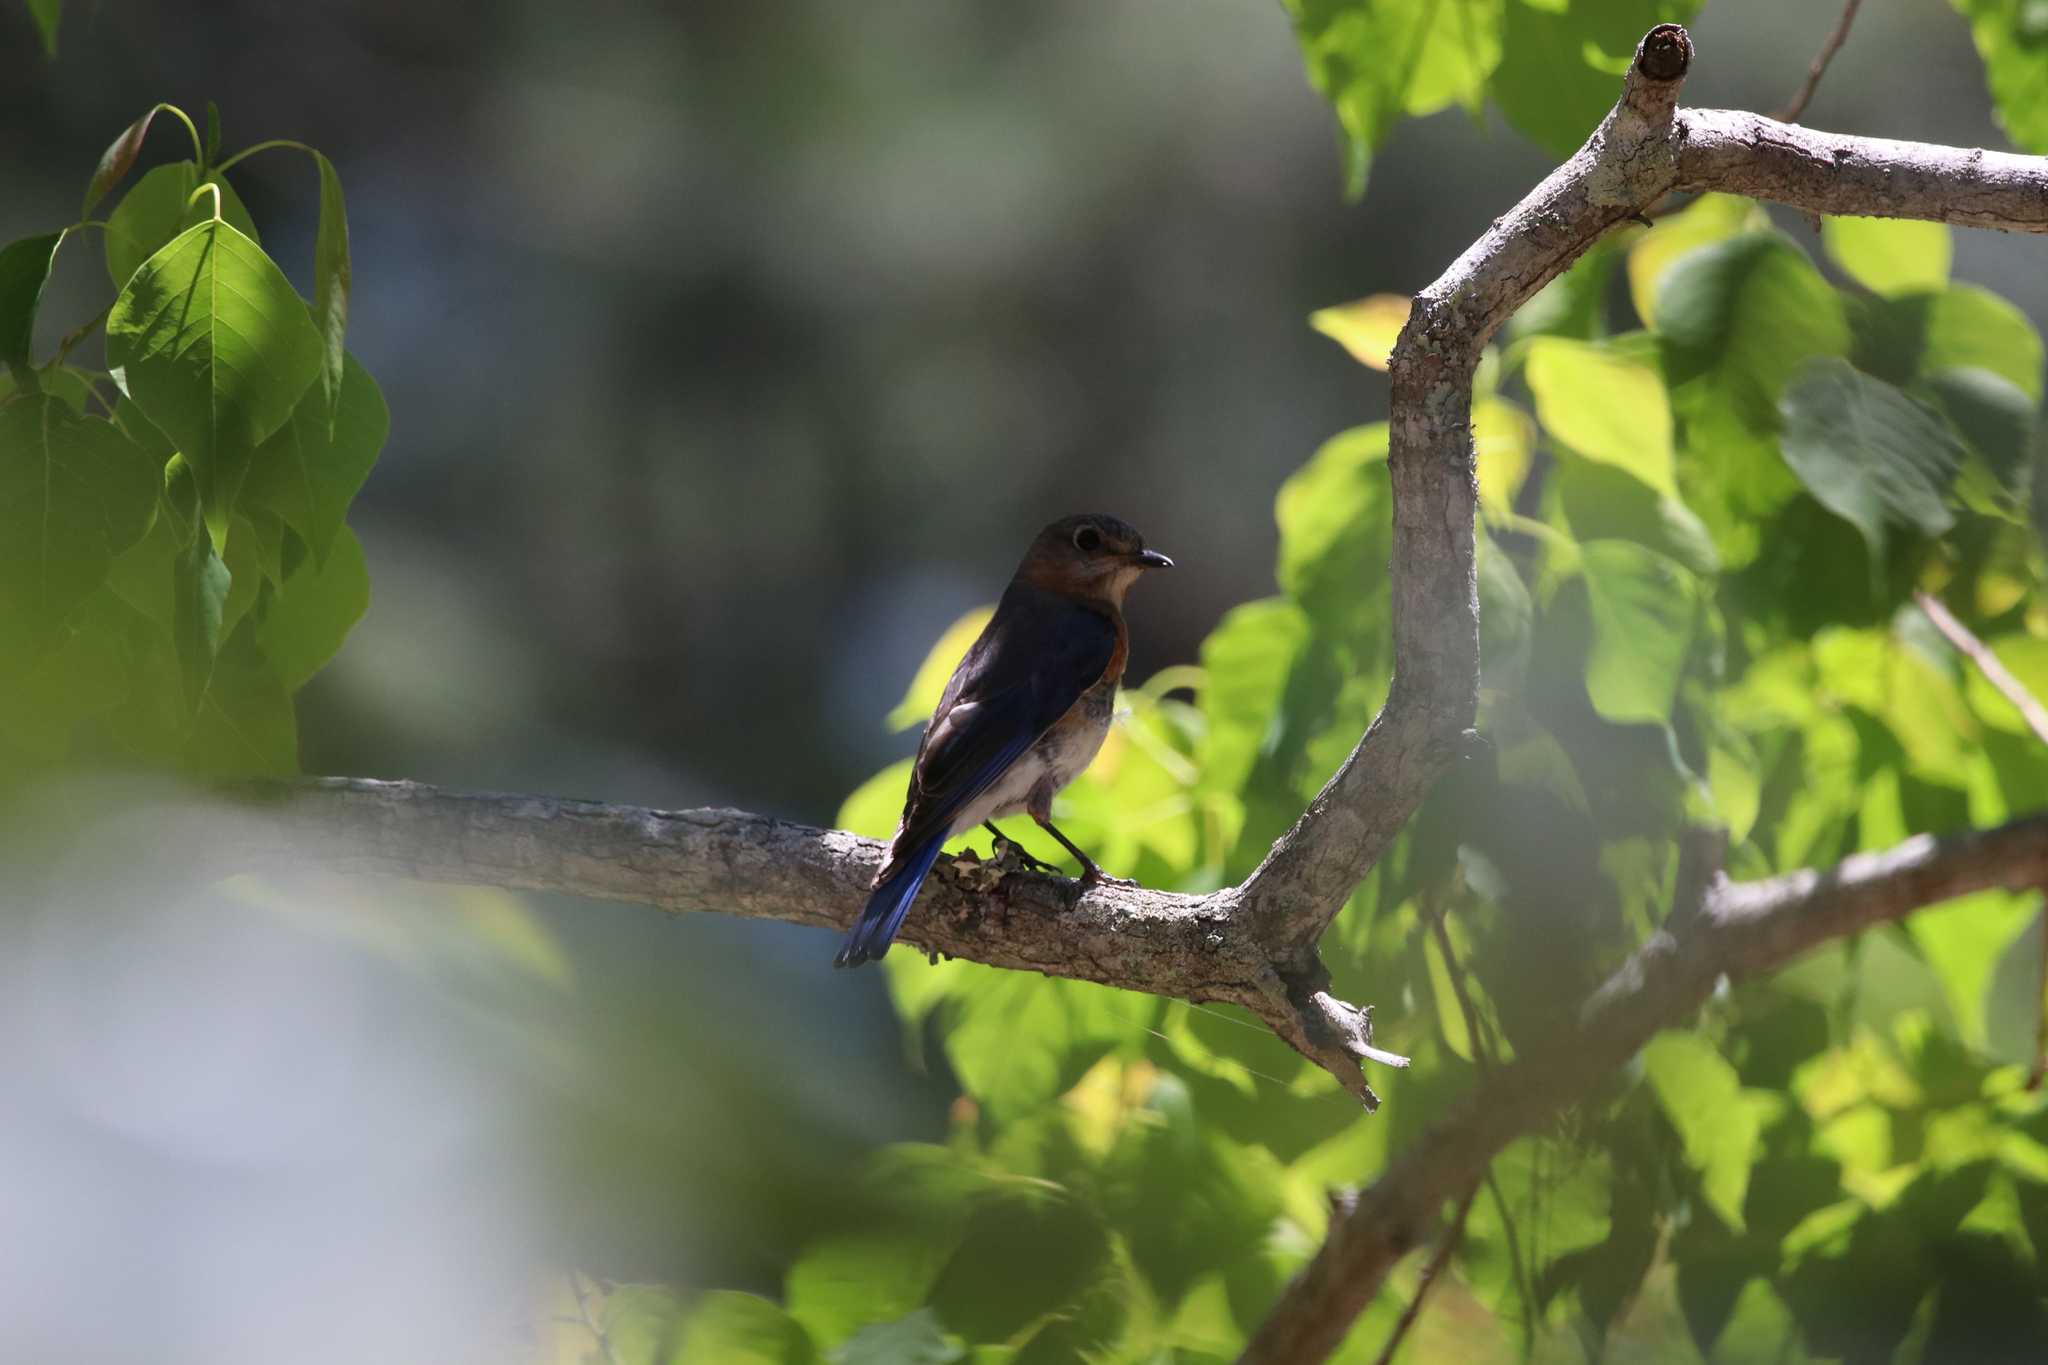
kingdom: Animalia
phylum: Chordata
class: Aves
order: Passeriformes
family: Turdidae
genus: Sialia
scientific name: Sialia sialis
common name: Eastern bluebird
